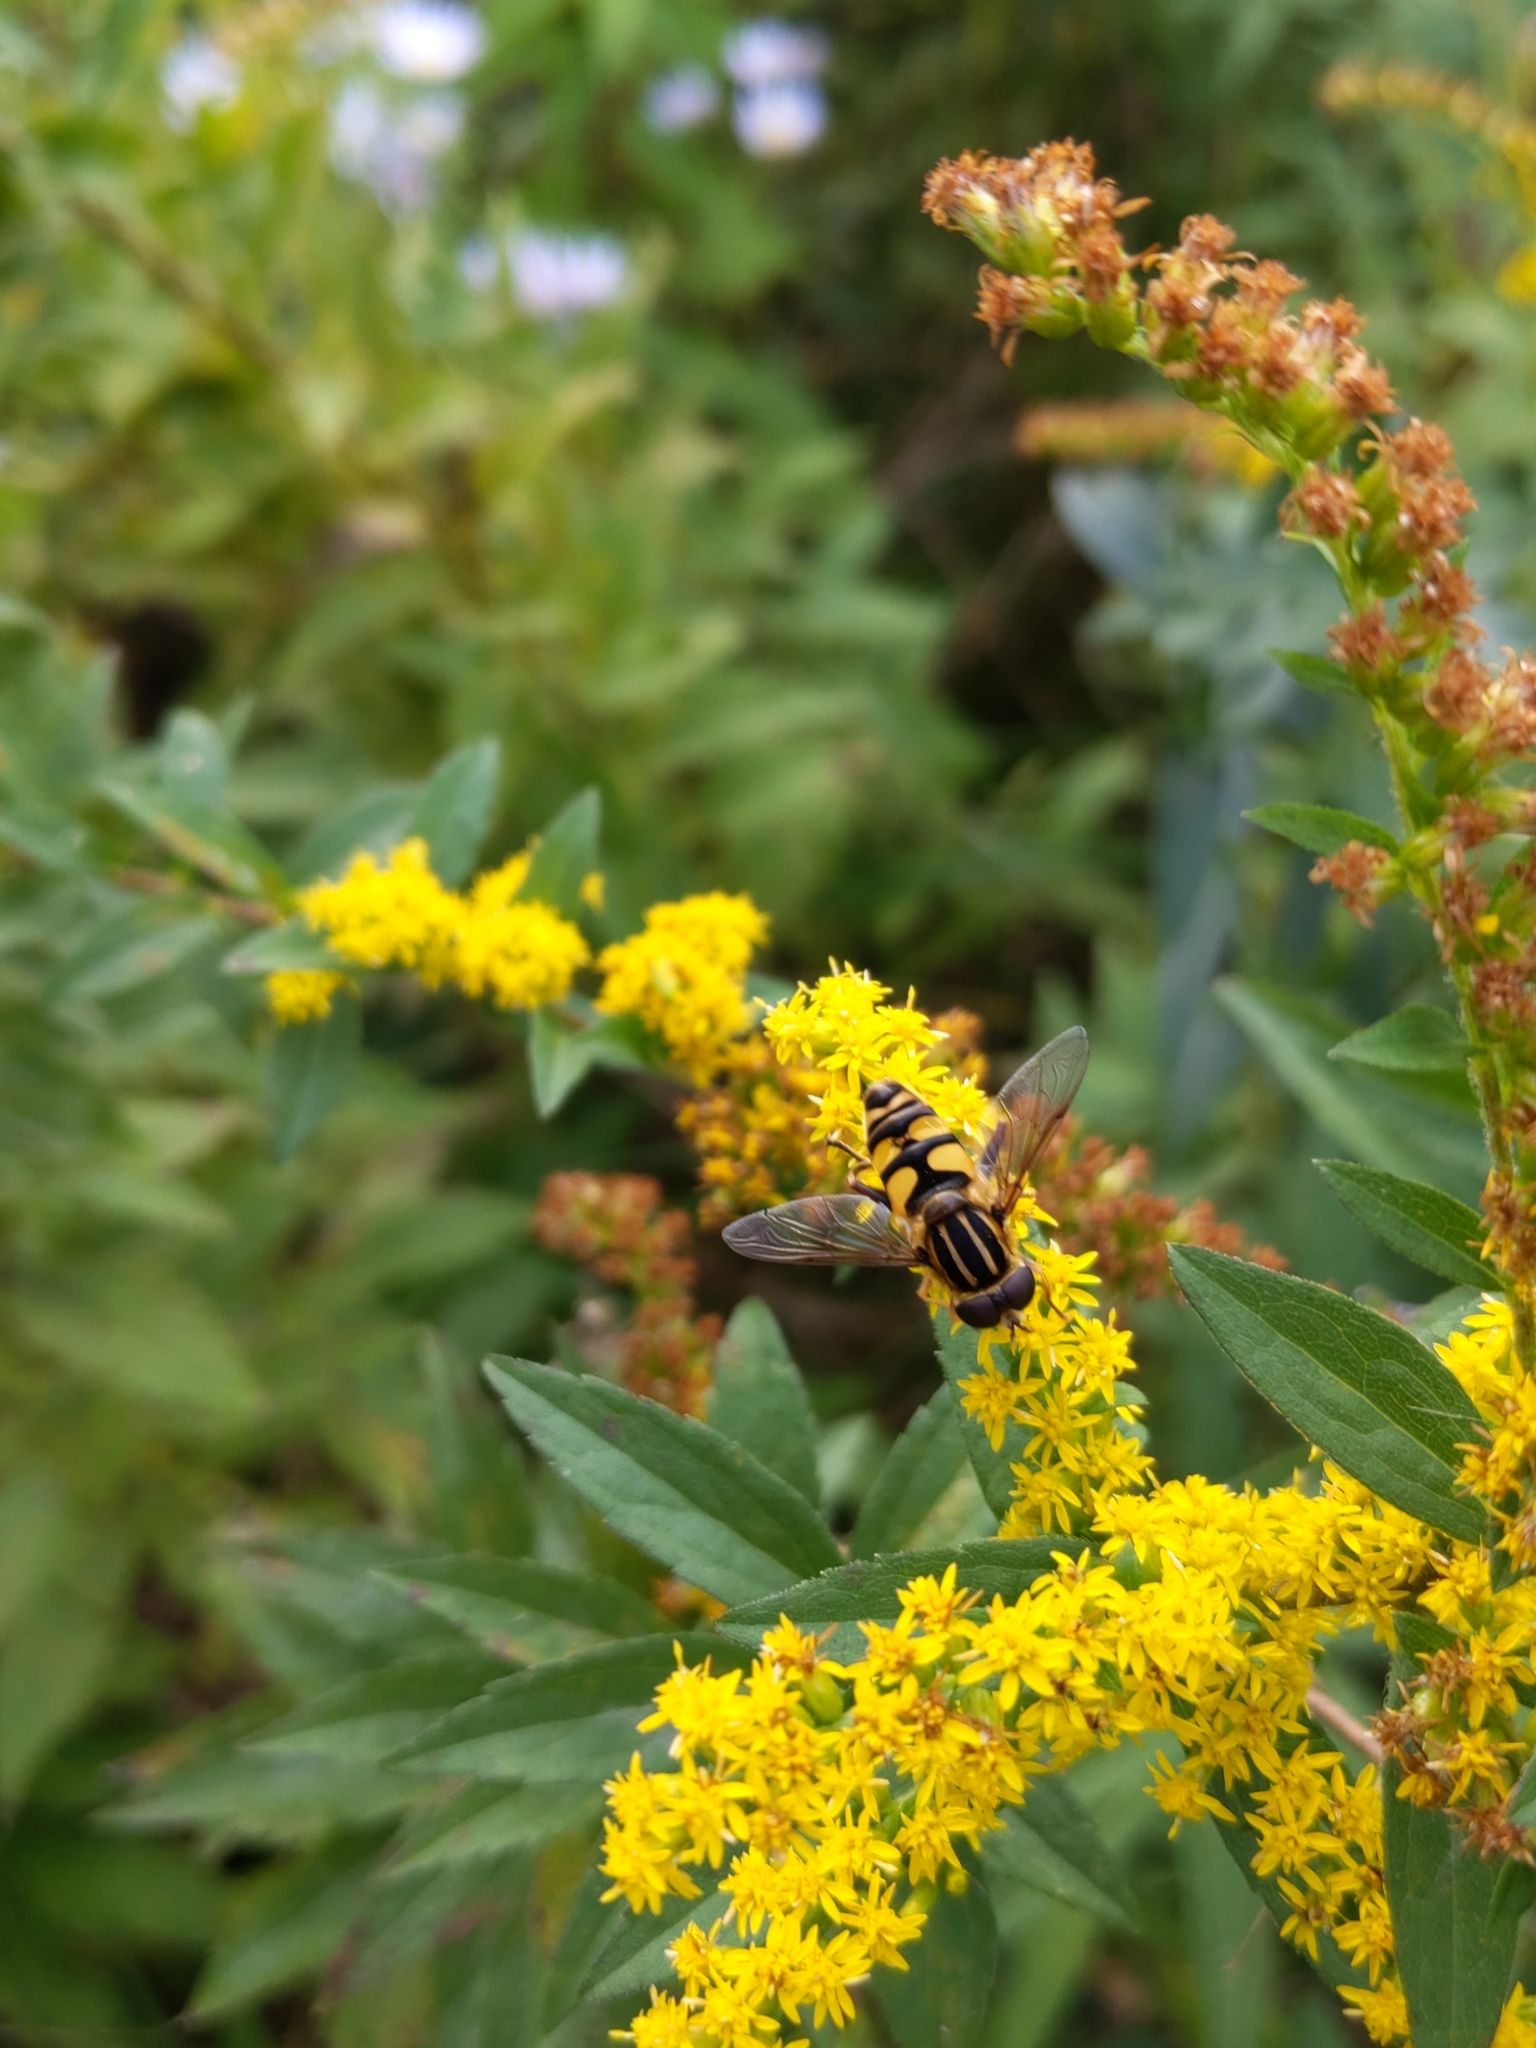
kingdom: Animalia
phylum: Arthropoda
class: Insecta
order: Diptera
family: Syrphidae
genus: Helophilus
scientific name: Helophilus fasciatus
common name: Narrow-headed marsh fly
